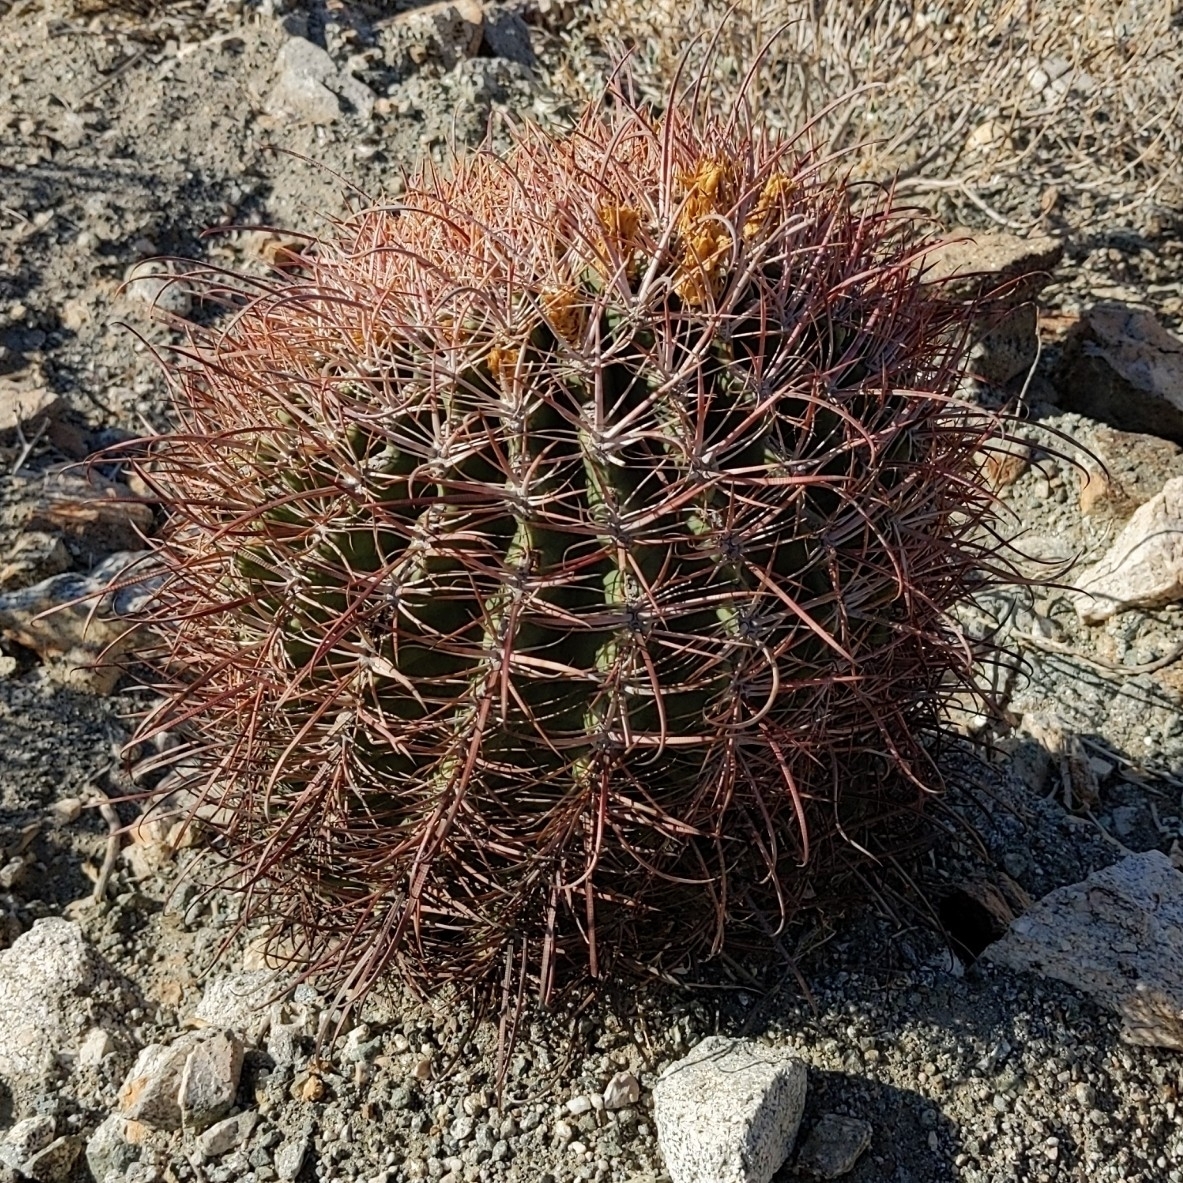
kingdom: Plantae
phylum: Tracheophyta
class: Magnoliopsida
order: Caryophyllales
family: Cactaceae
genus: Ferocactus
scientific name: Ferocactus cylindraceus
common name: California barrel cactus
